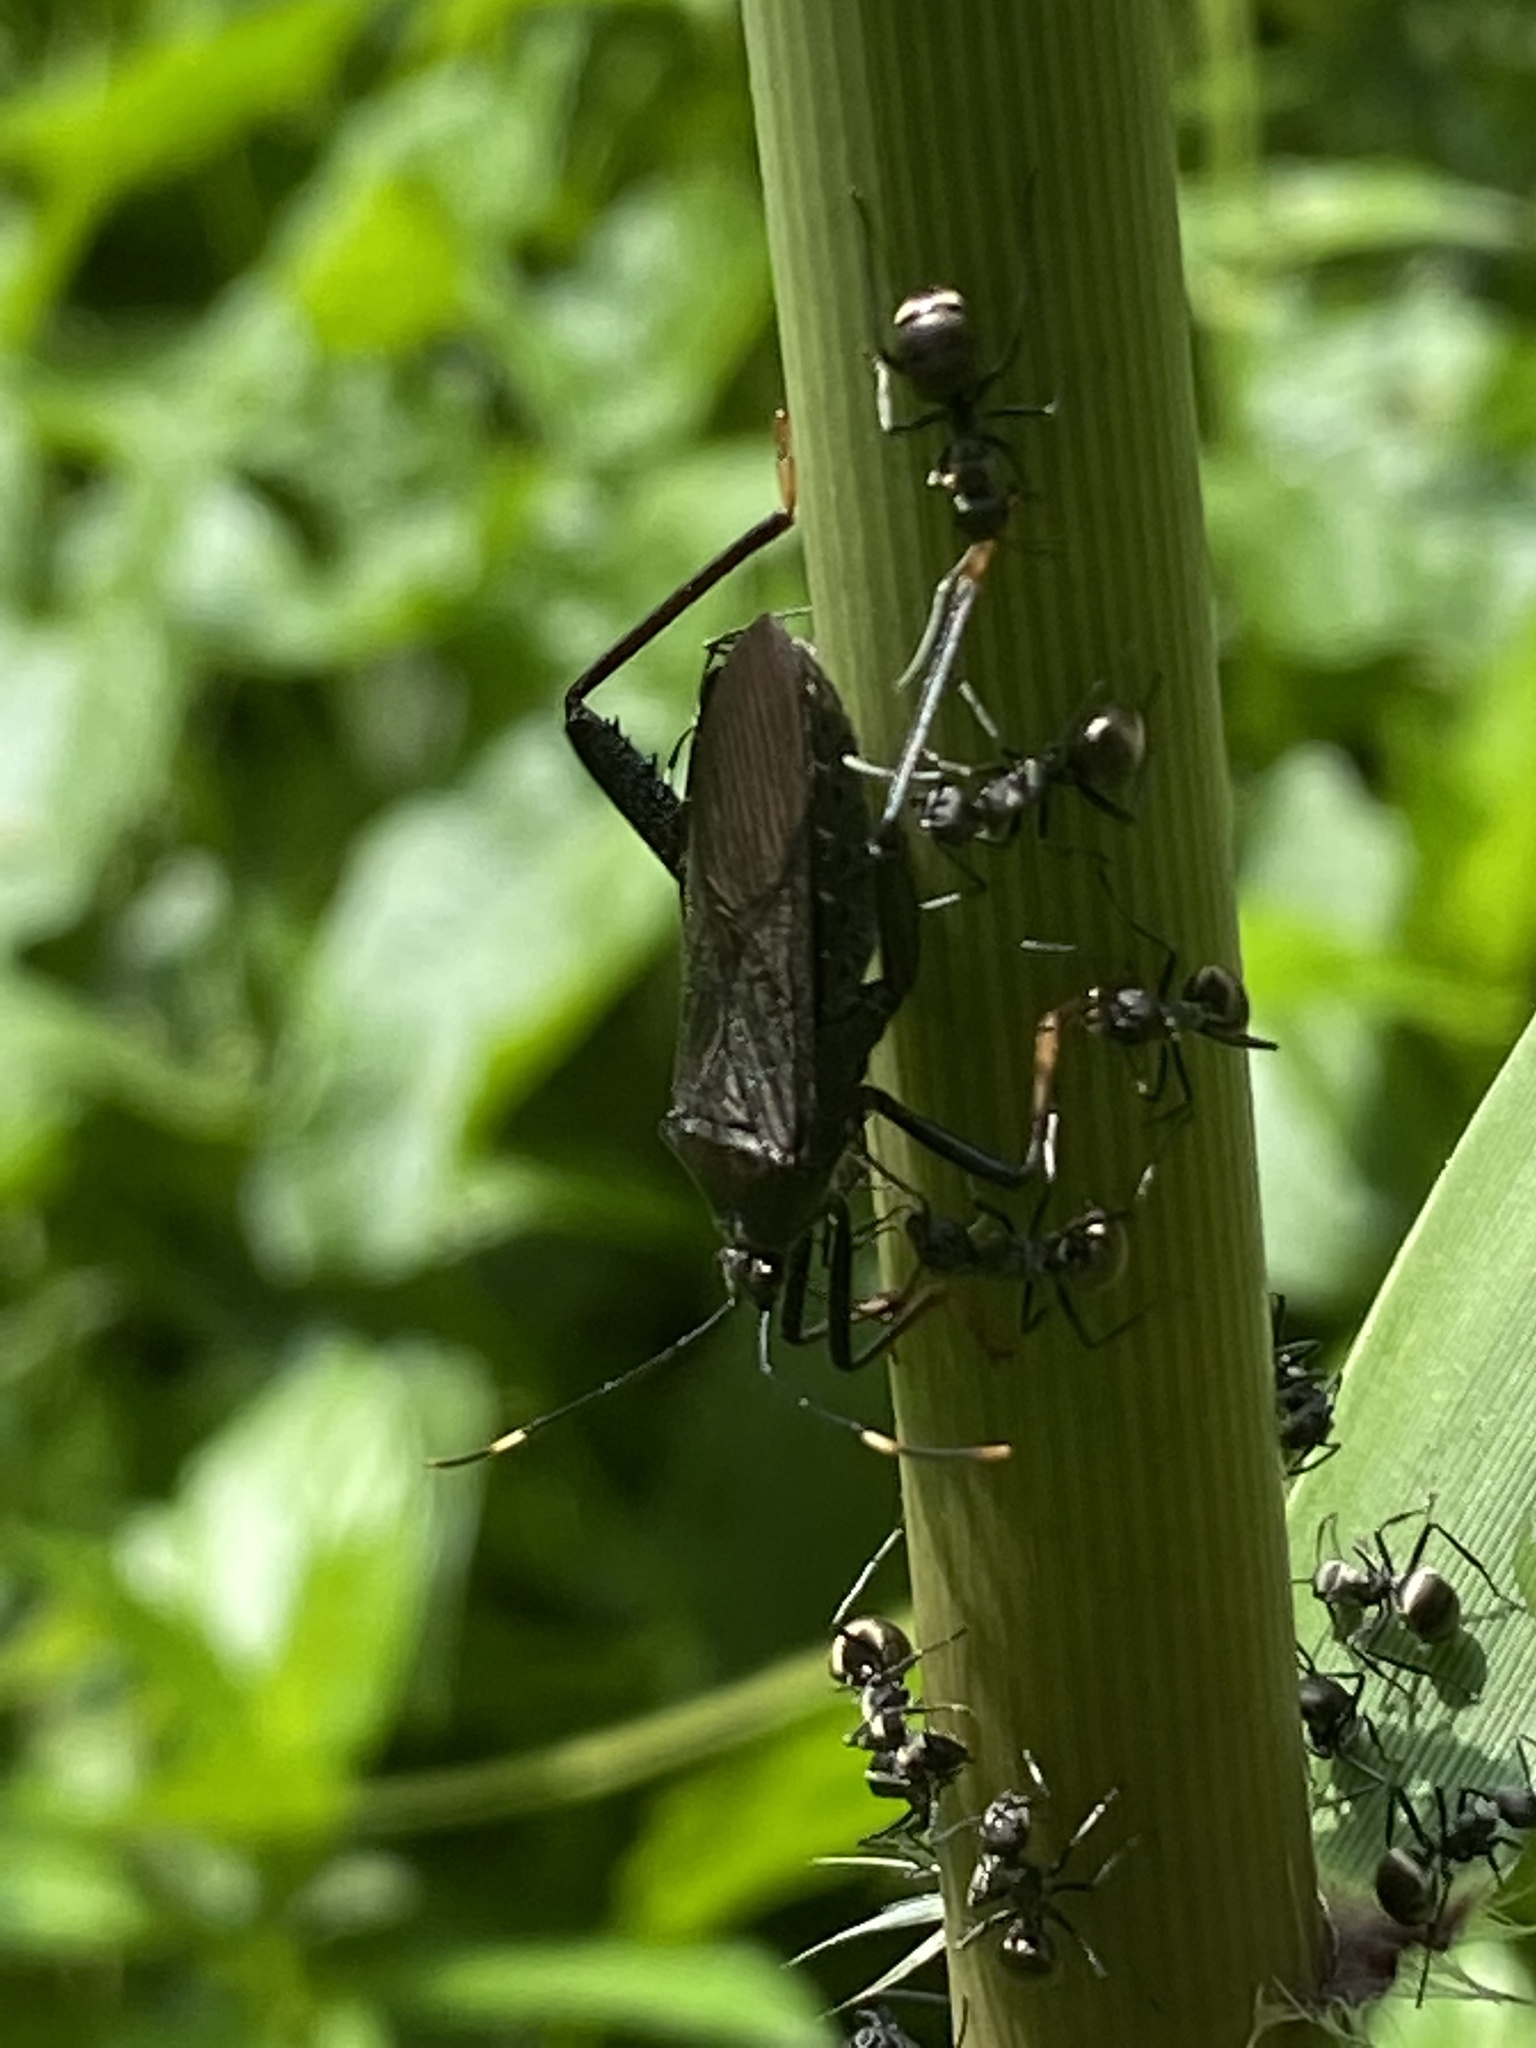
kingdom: Animalia
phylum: Arthropoda
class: Insecta
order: Hemiptera
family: Coreidae
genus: Notobitus
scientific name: Notobitus meleagris
